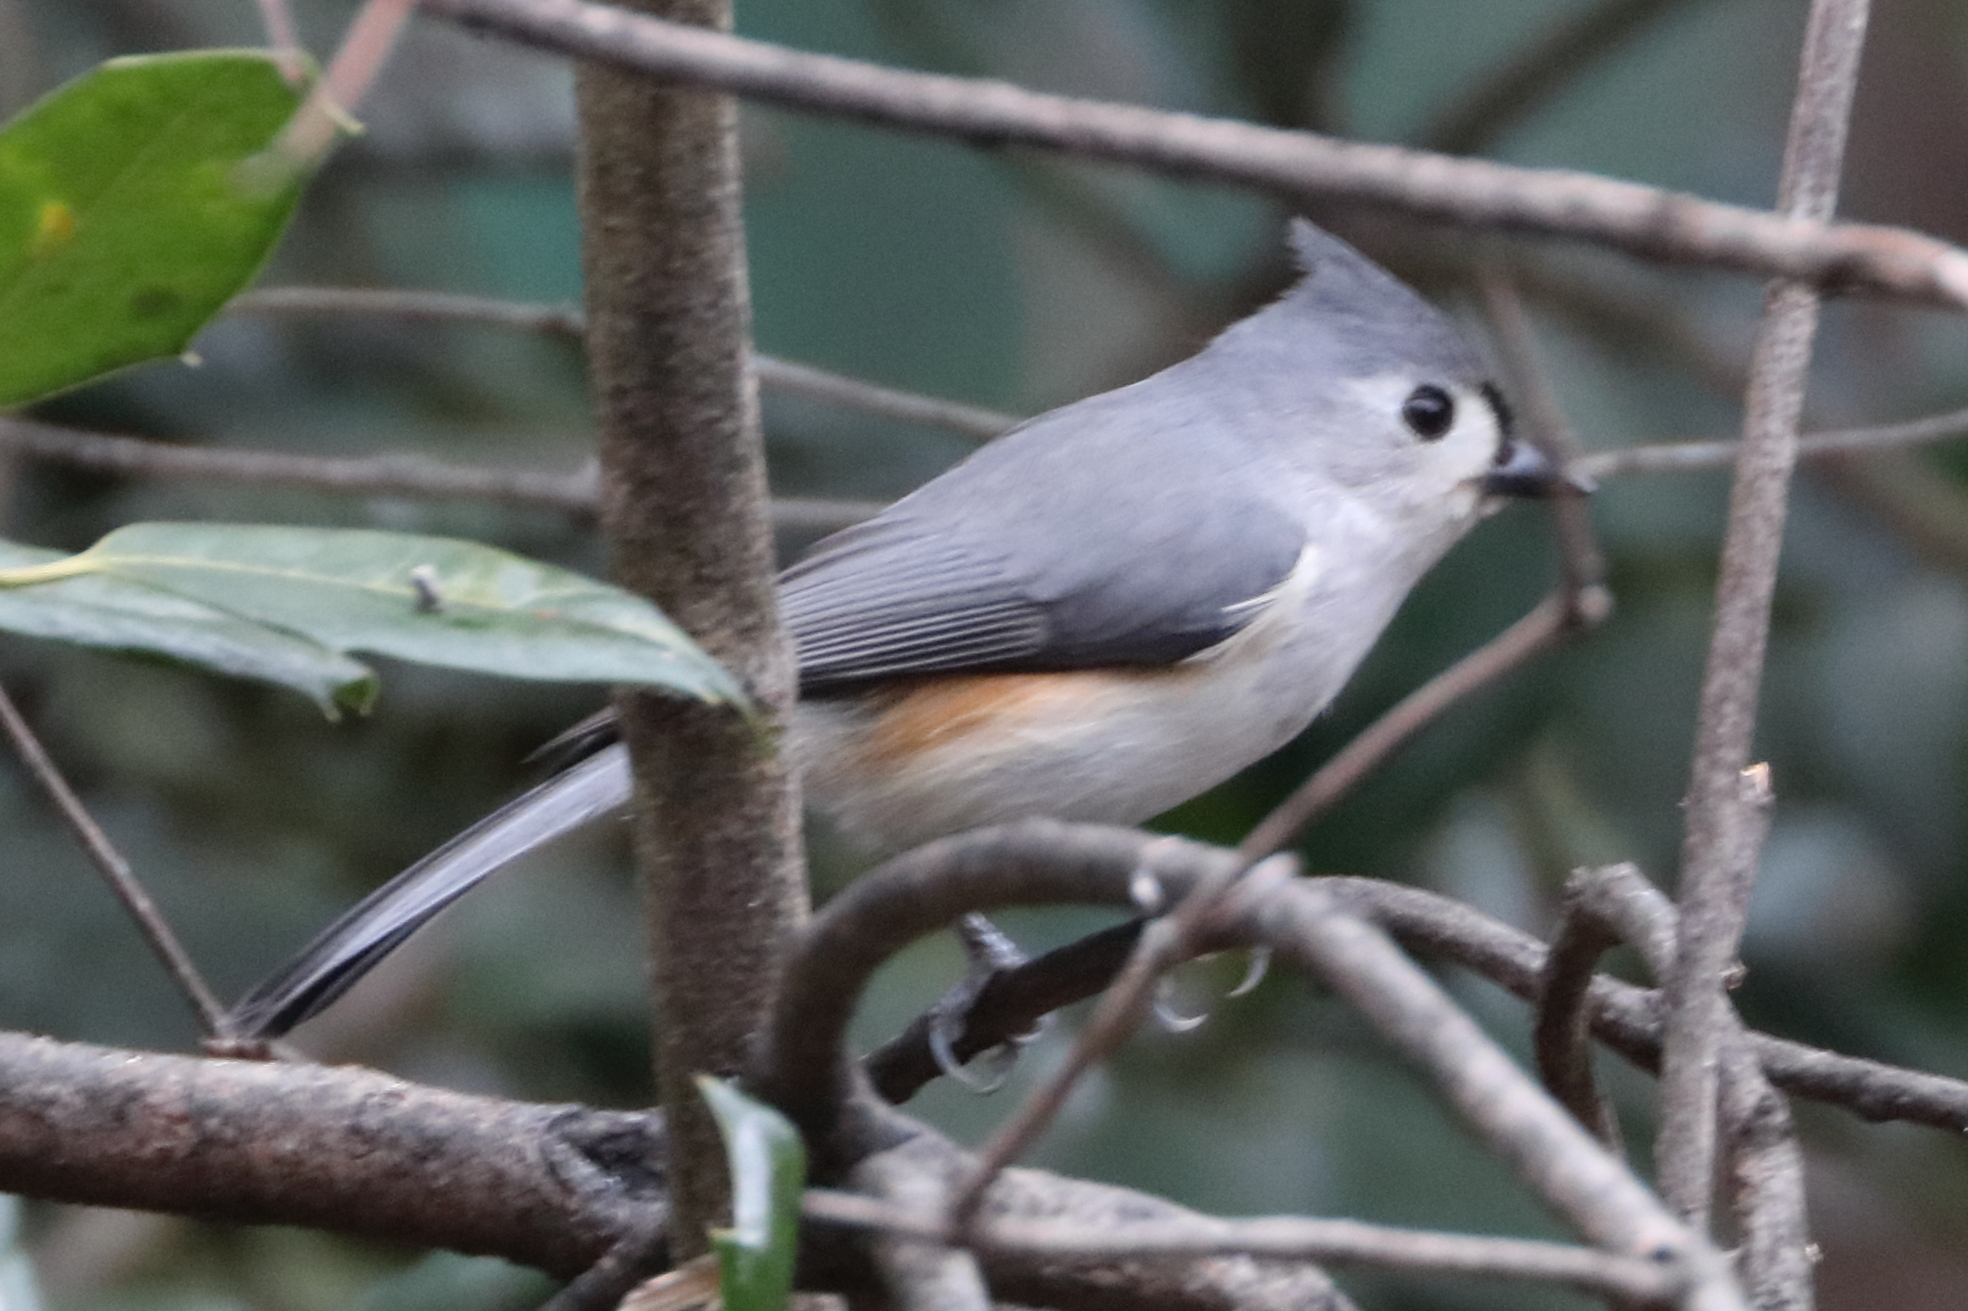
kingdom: Animalia
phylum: Chordata
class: Aves
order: Passeriformes
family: Paridae
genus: Baeolophus
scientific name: Baeolophus bicolor
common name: Tufted titmouse
